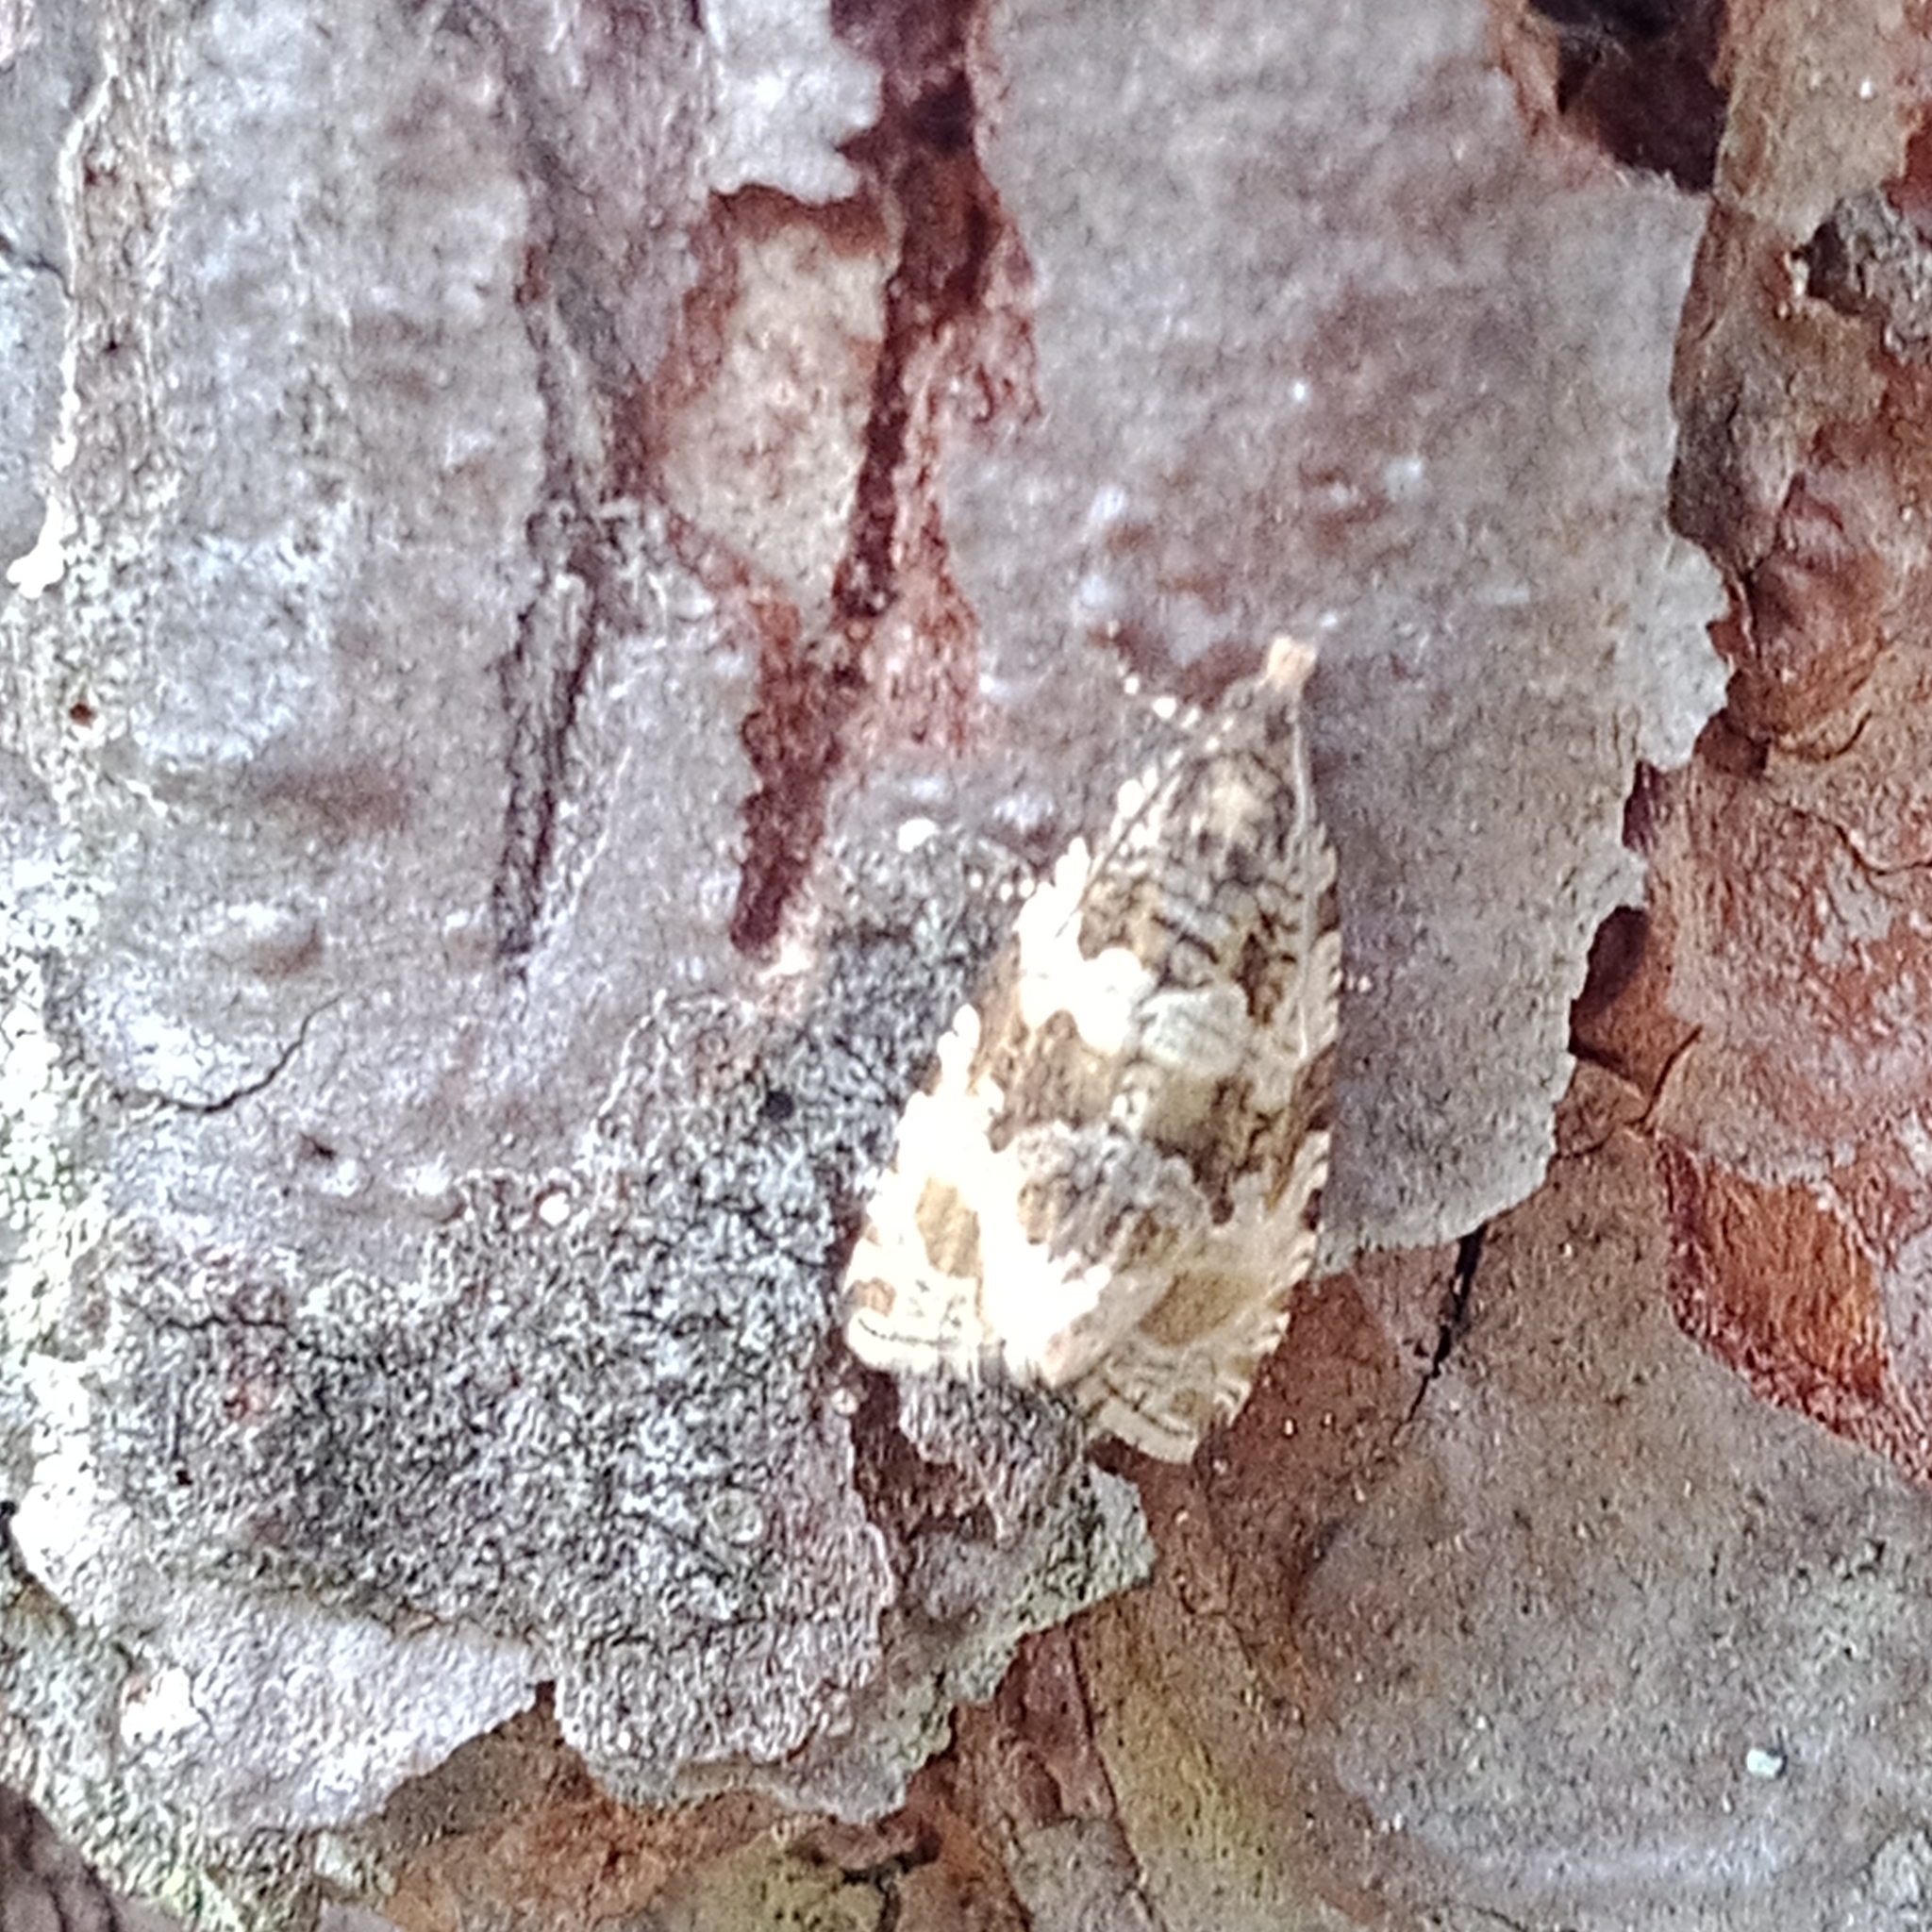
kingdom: Animalia
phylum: Arthropoda
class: Insecta
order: Lepidoptera
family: Tortricidae
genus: Orthotaenia
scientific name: Orthotaenia undulana
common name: Woodland marble
